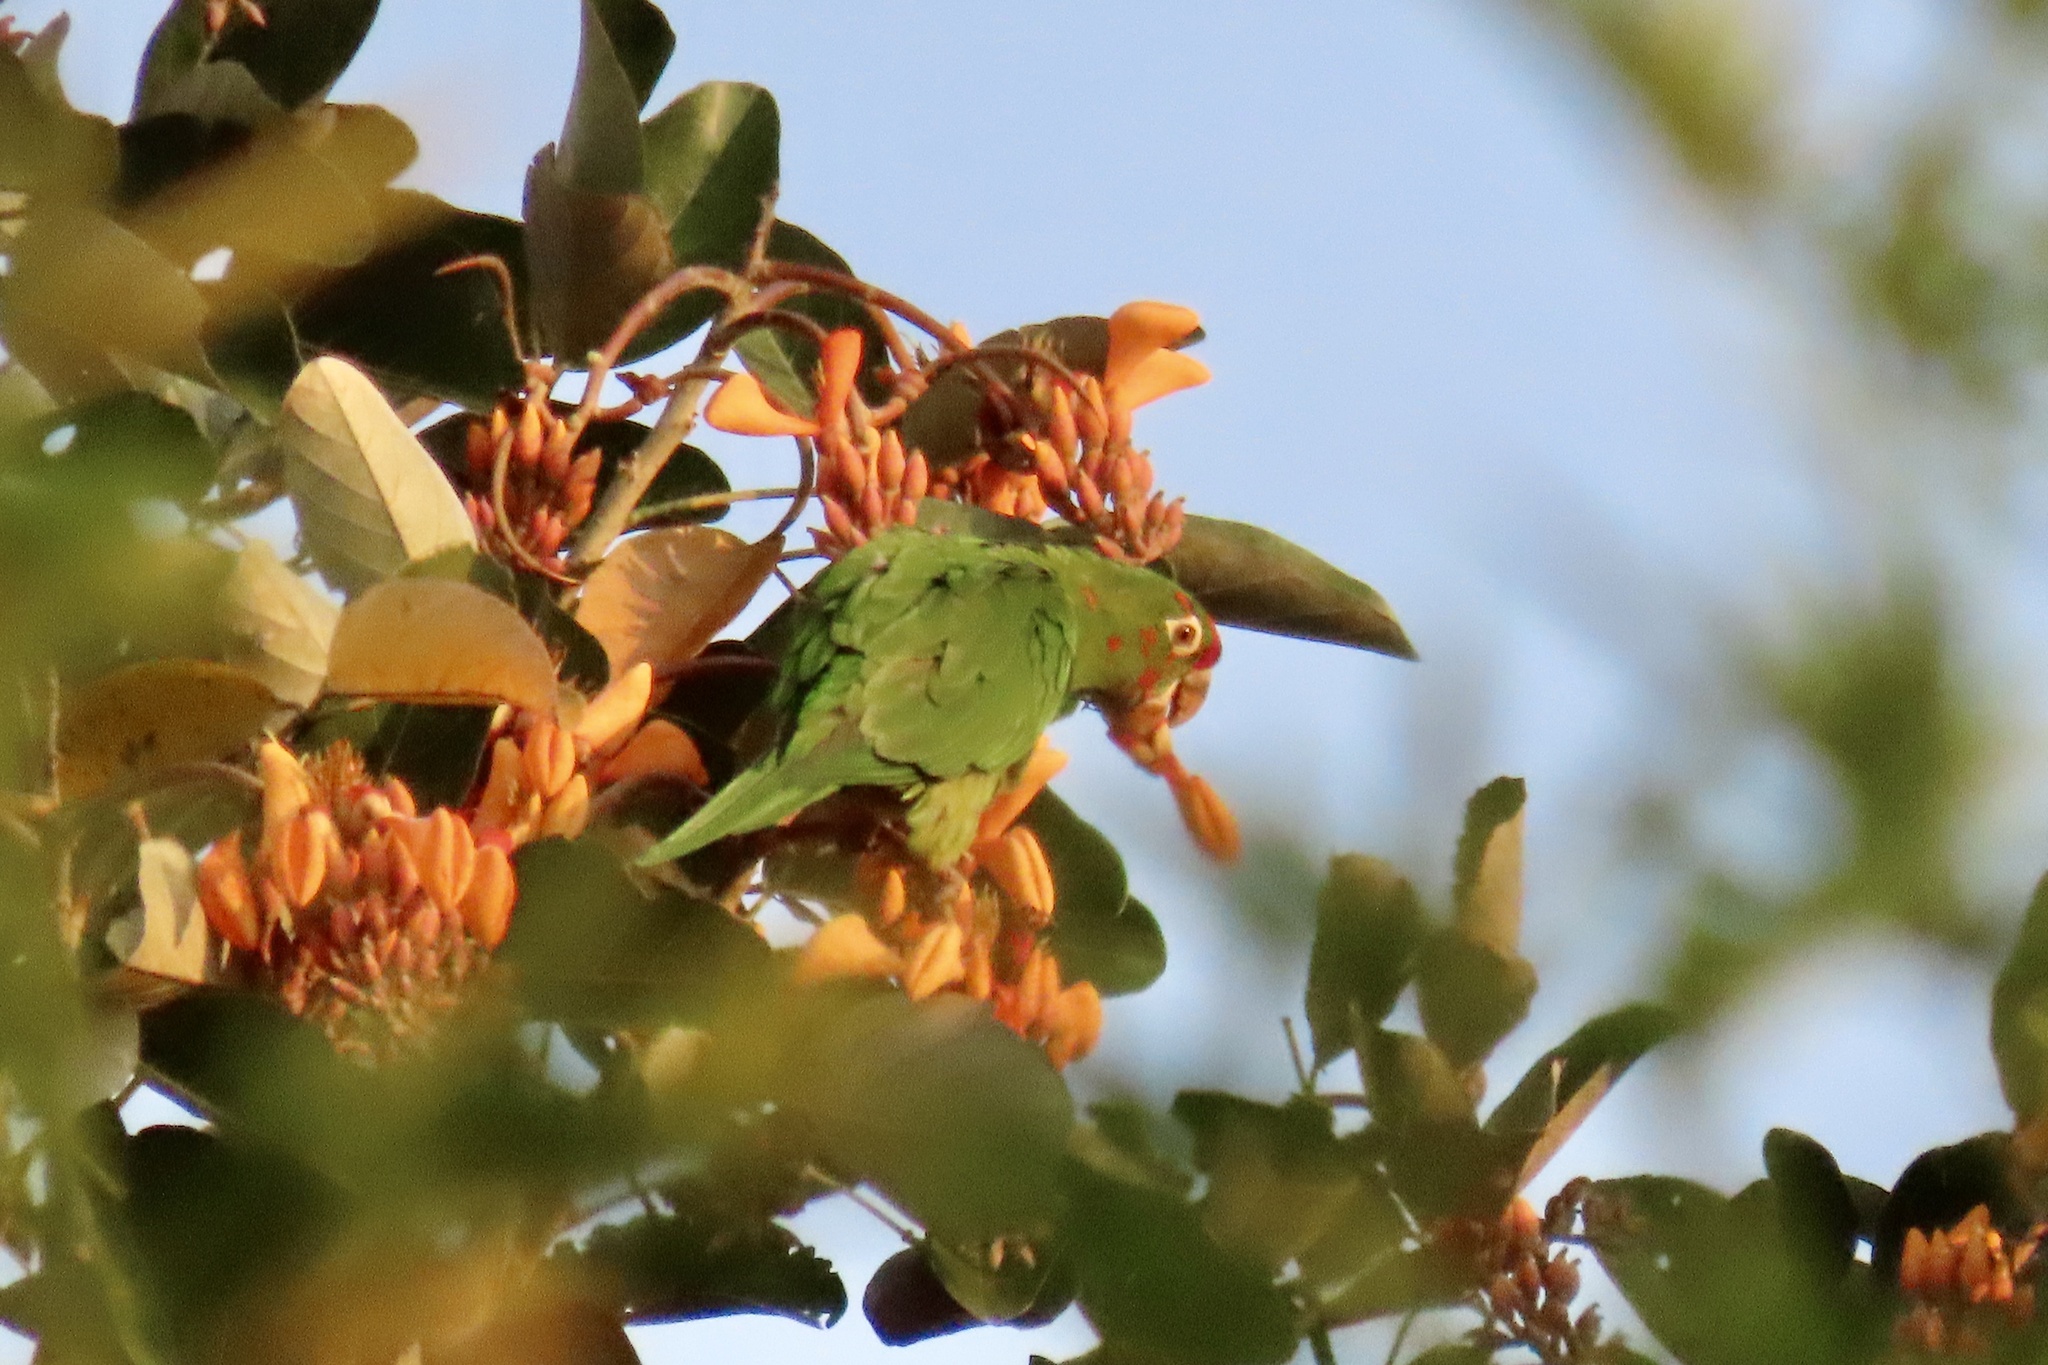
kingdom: Animalia
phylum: Chordata
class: Aves
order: Psittaciformes
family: Psittacidae
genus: Aratinga
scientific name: Aratinga finschi
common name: Crimson-fronted parakeet
